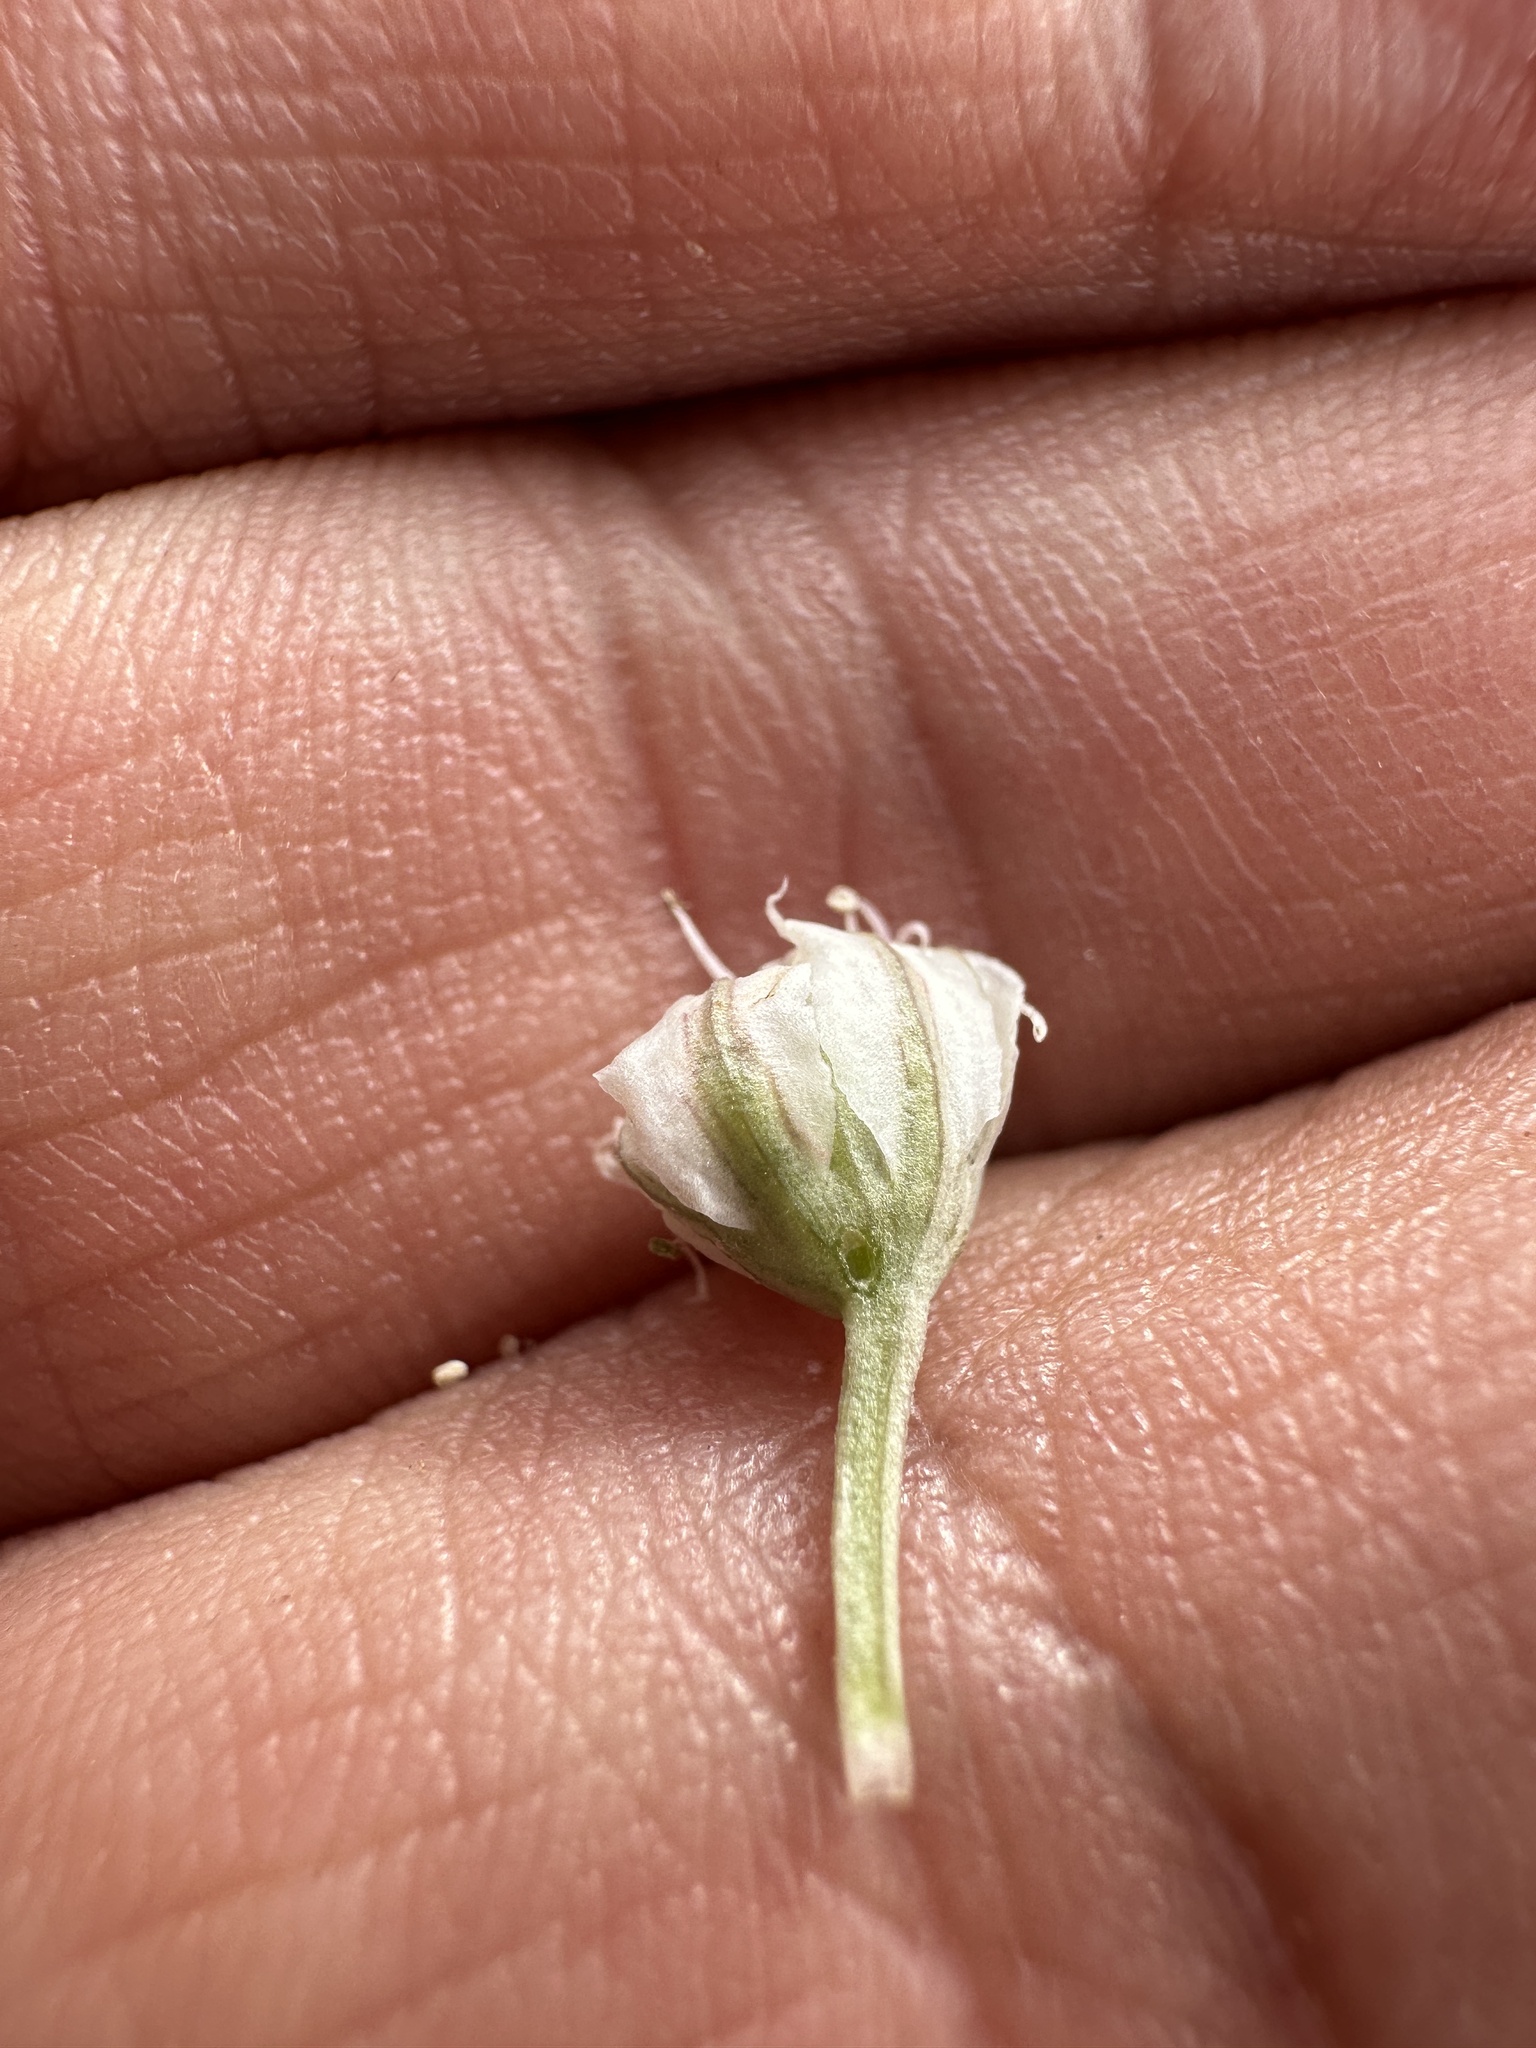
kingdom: Plantae
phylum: Tracheophyta
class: Magnoliopsida
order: Apiales
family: Apiaceae
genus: Vesper
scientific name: Vesper montanus
